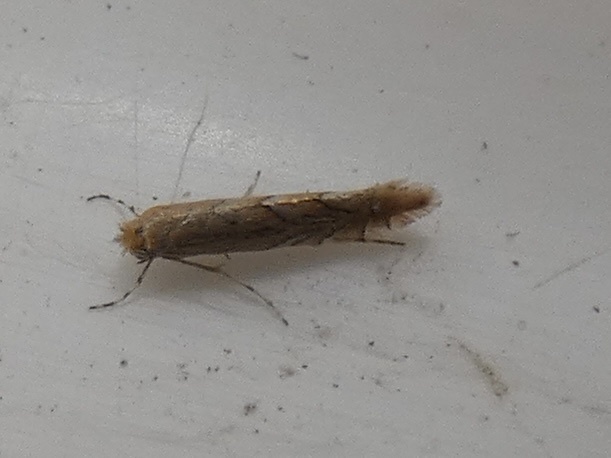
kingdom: Animalia
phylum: Arthropoda
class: Insecta
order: Lepidoptera
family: Gracillariidae
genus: Phyllonorycter
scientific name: Phyllonorycter messaniella
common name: Garden midget
